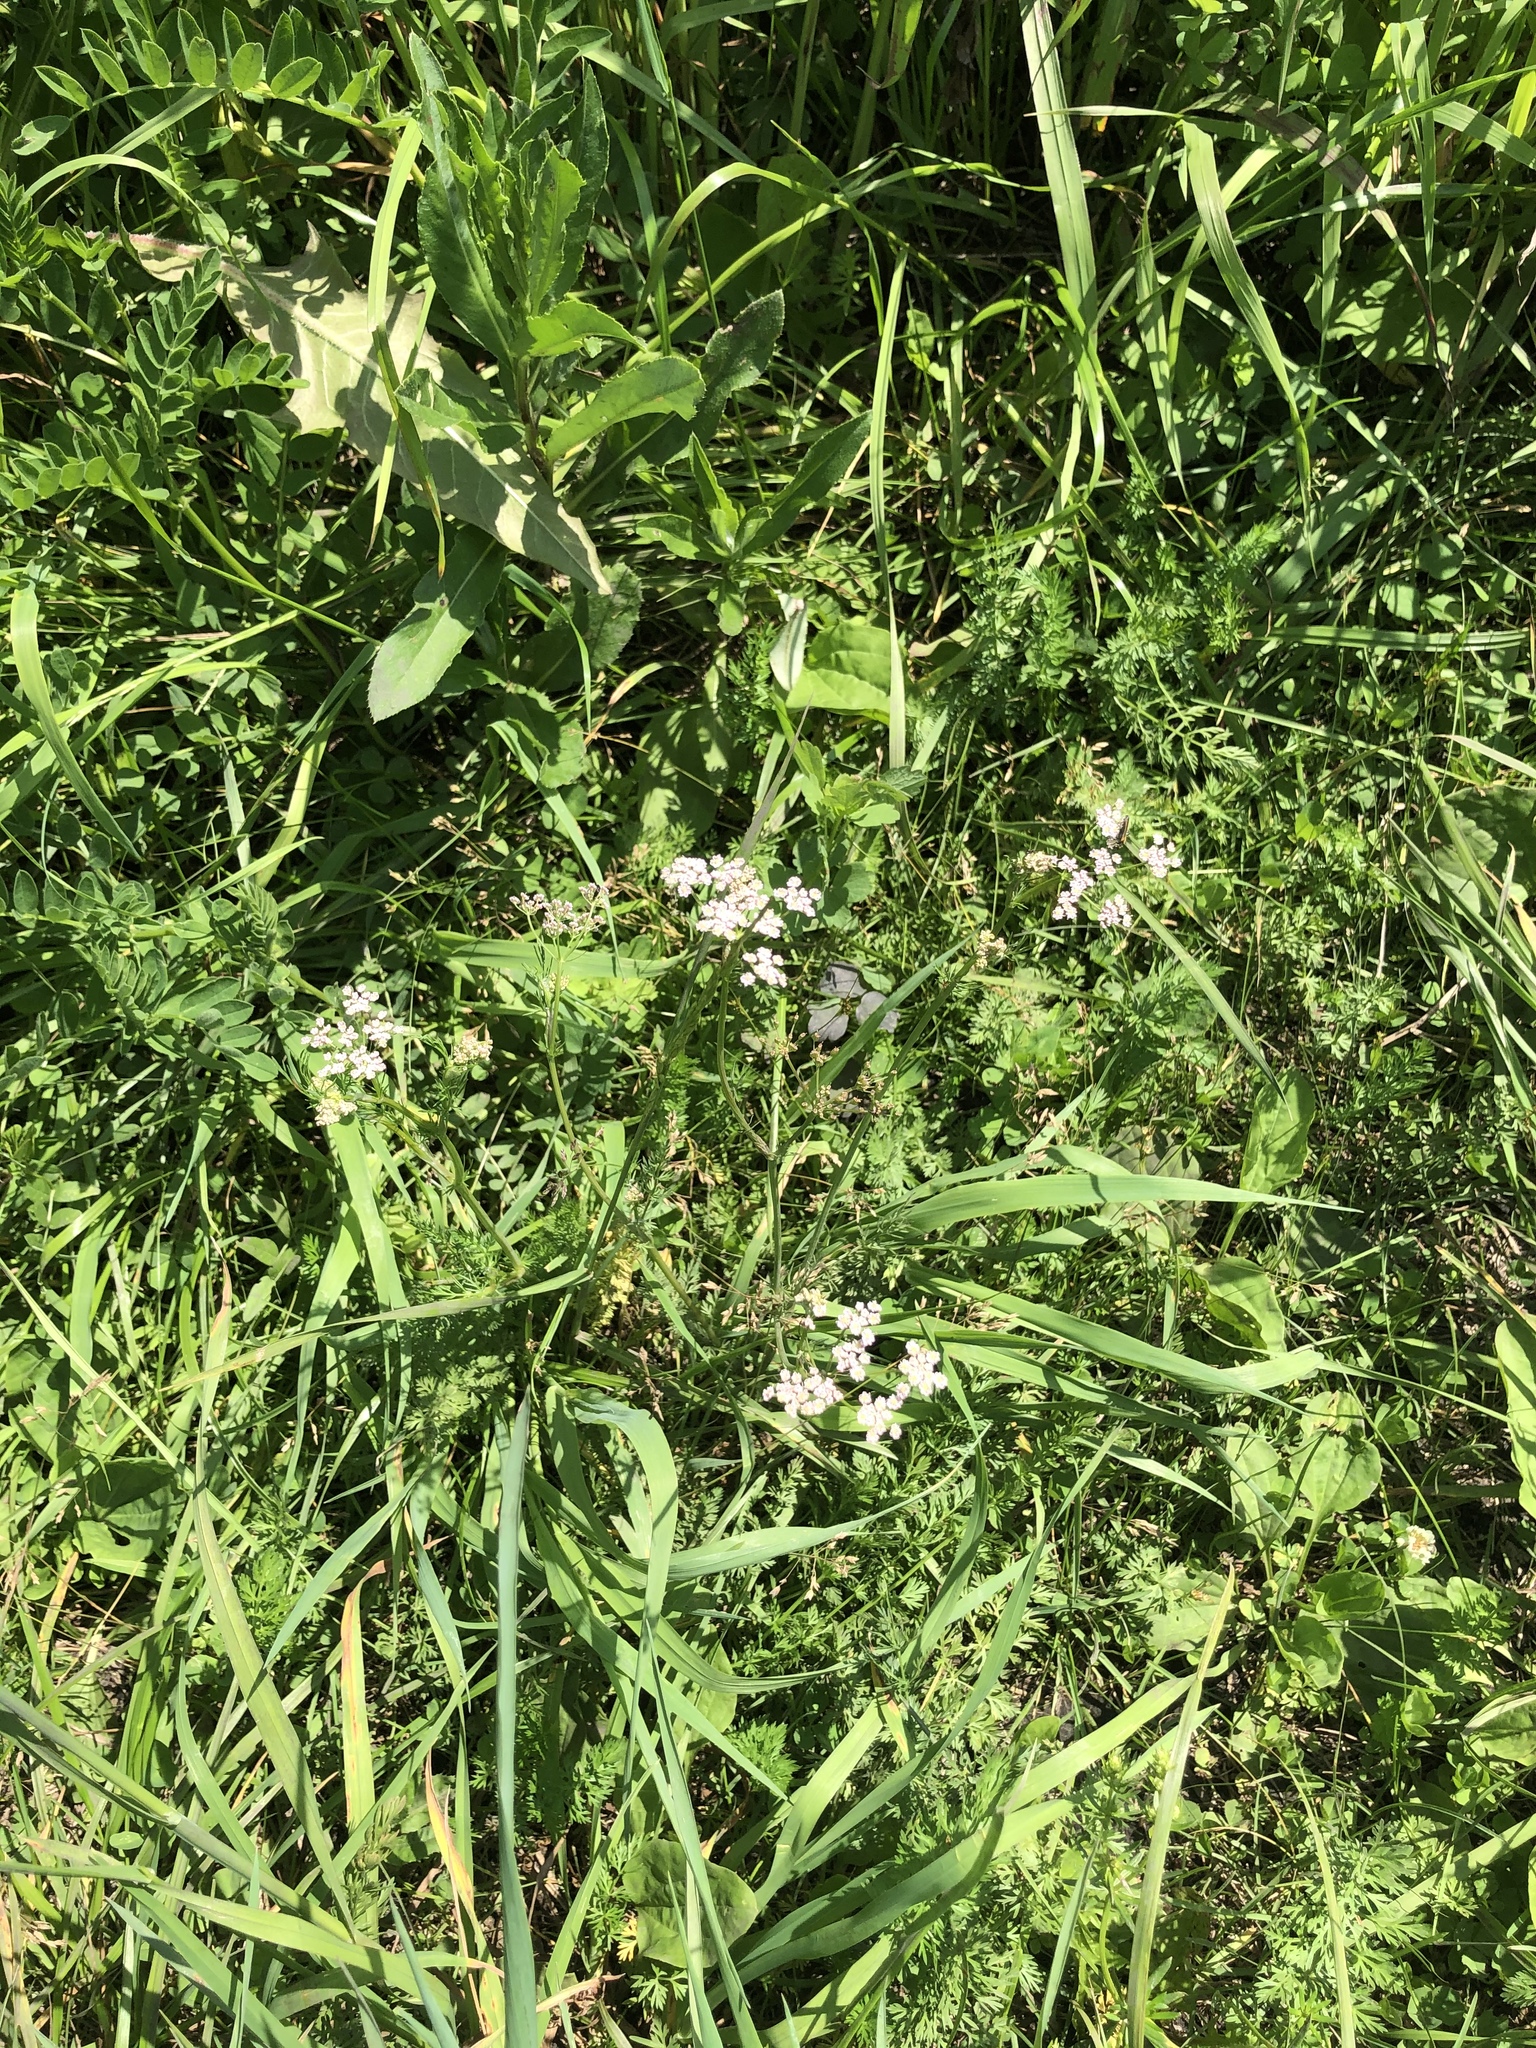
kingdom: Plantae
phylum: Tracheophyta
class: Magnoliopsida
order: Apiales
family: Apiaceae
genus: Carum
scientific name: Carum carvi
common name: Caraway
